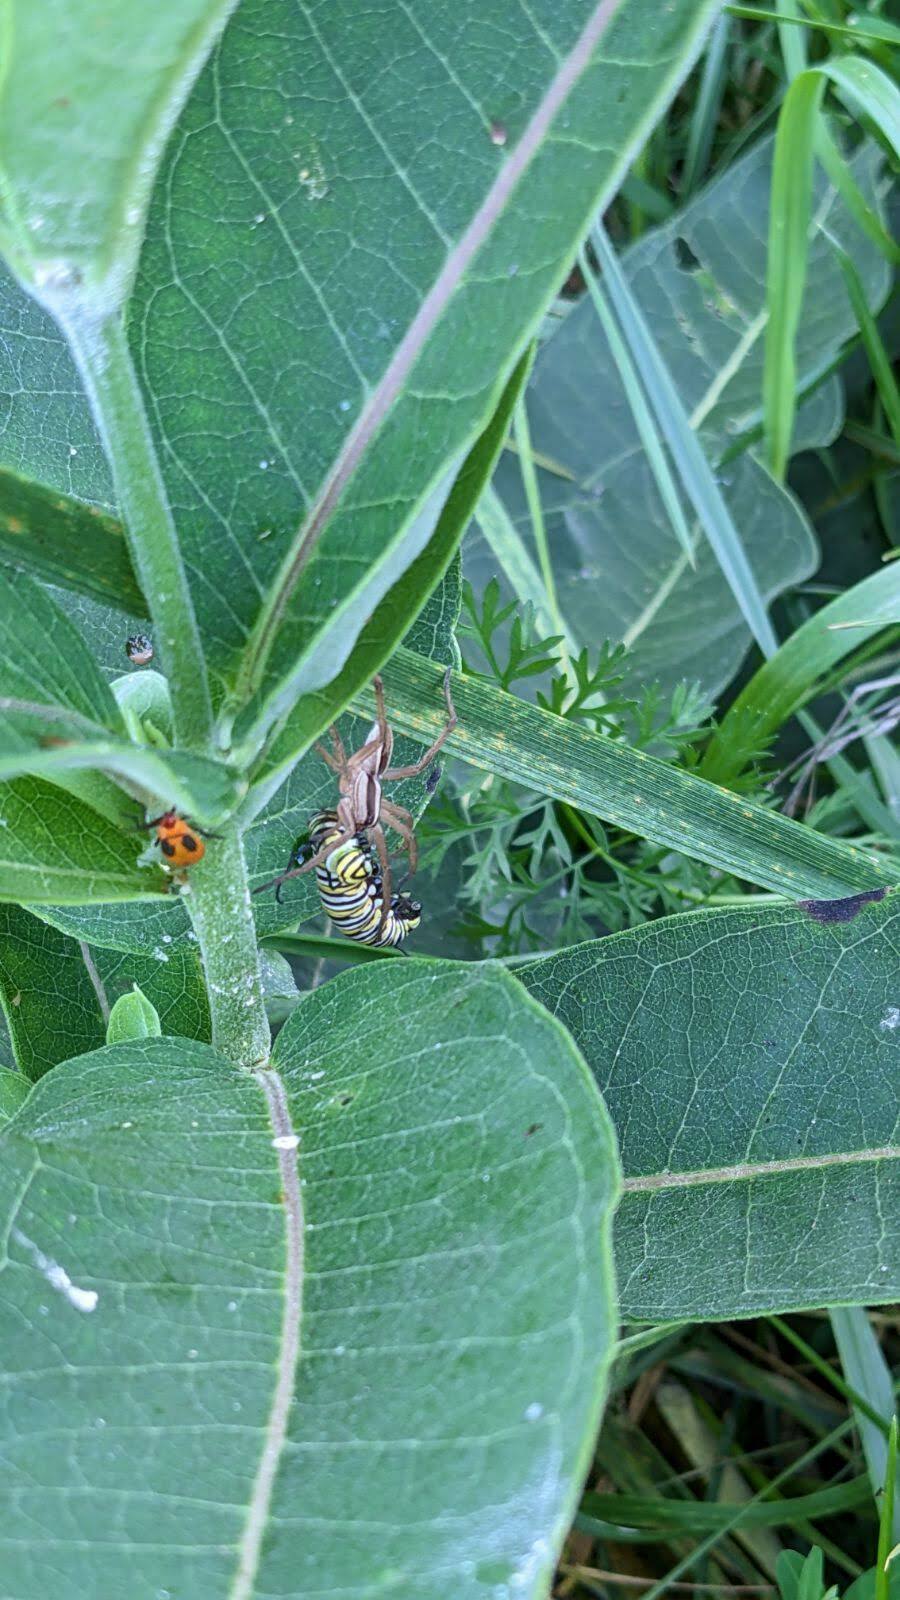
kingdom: Animalia
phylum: Arthropoda
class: Insecta
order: Lepidoptera
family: Nymphalidae
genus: Danaus
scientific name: Danaus plexippus
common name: Monarch
